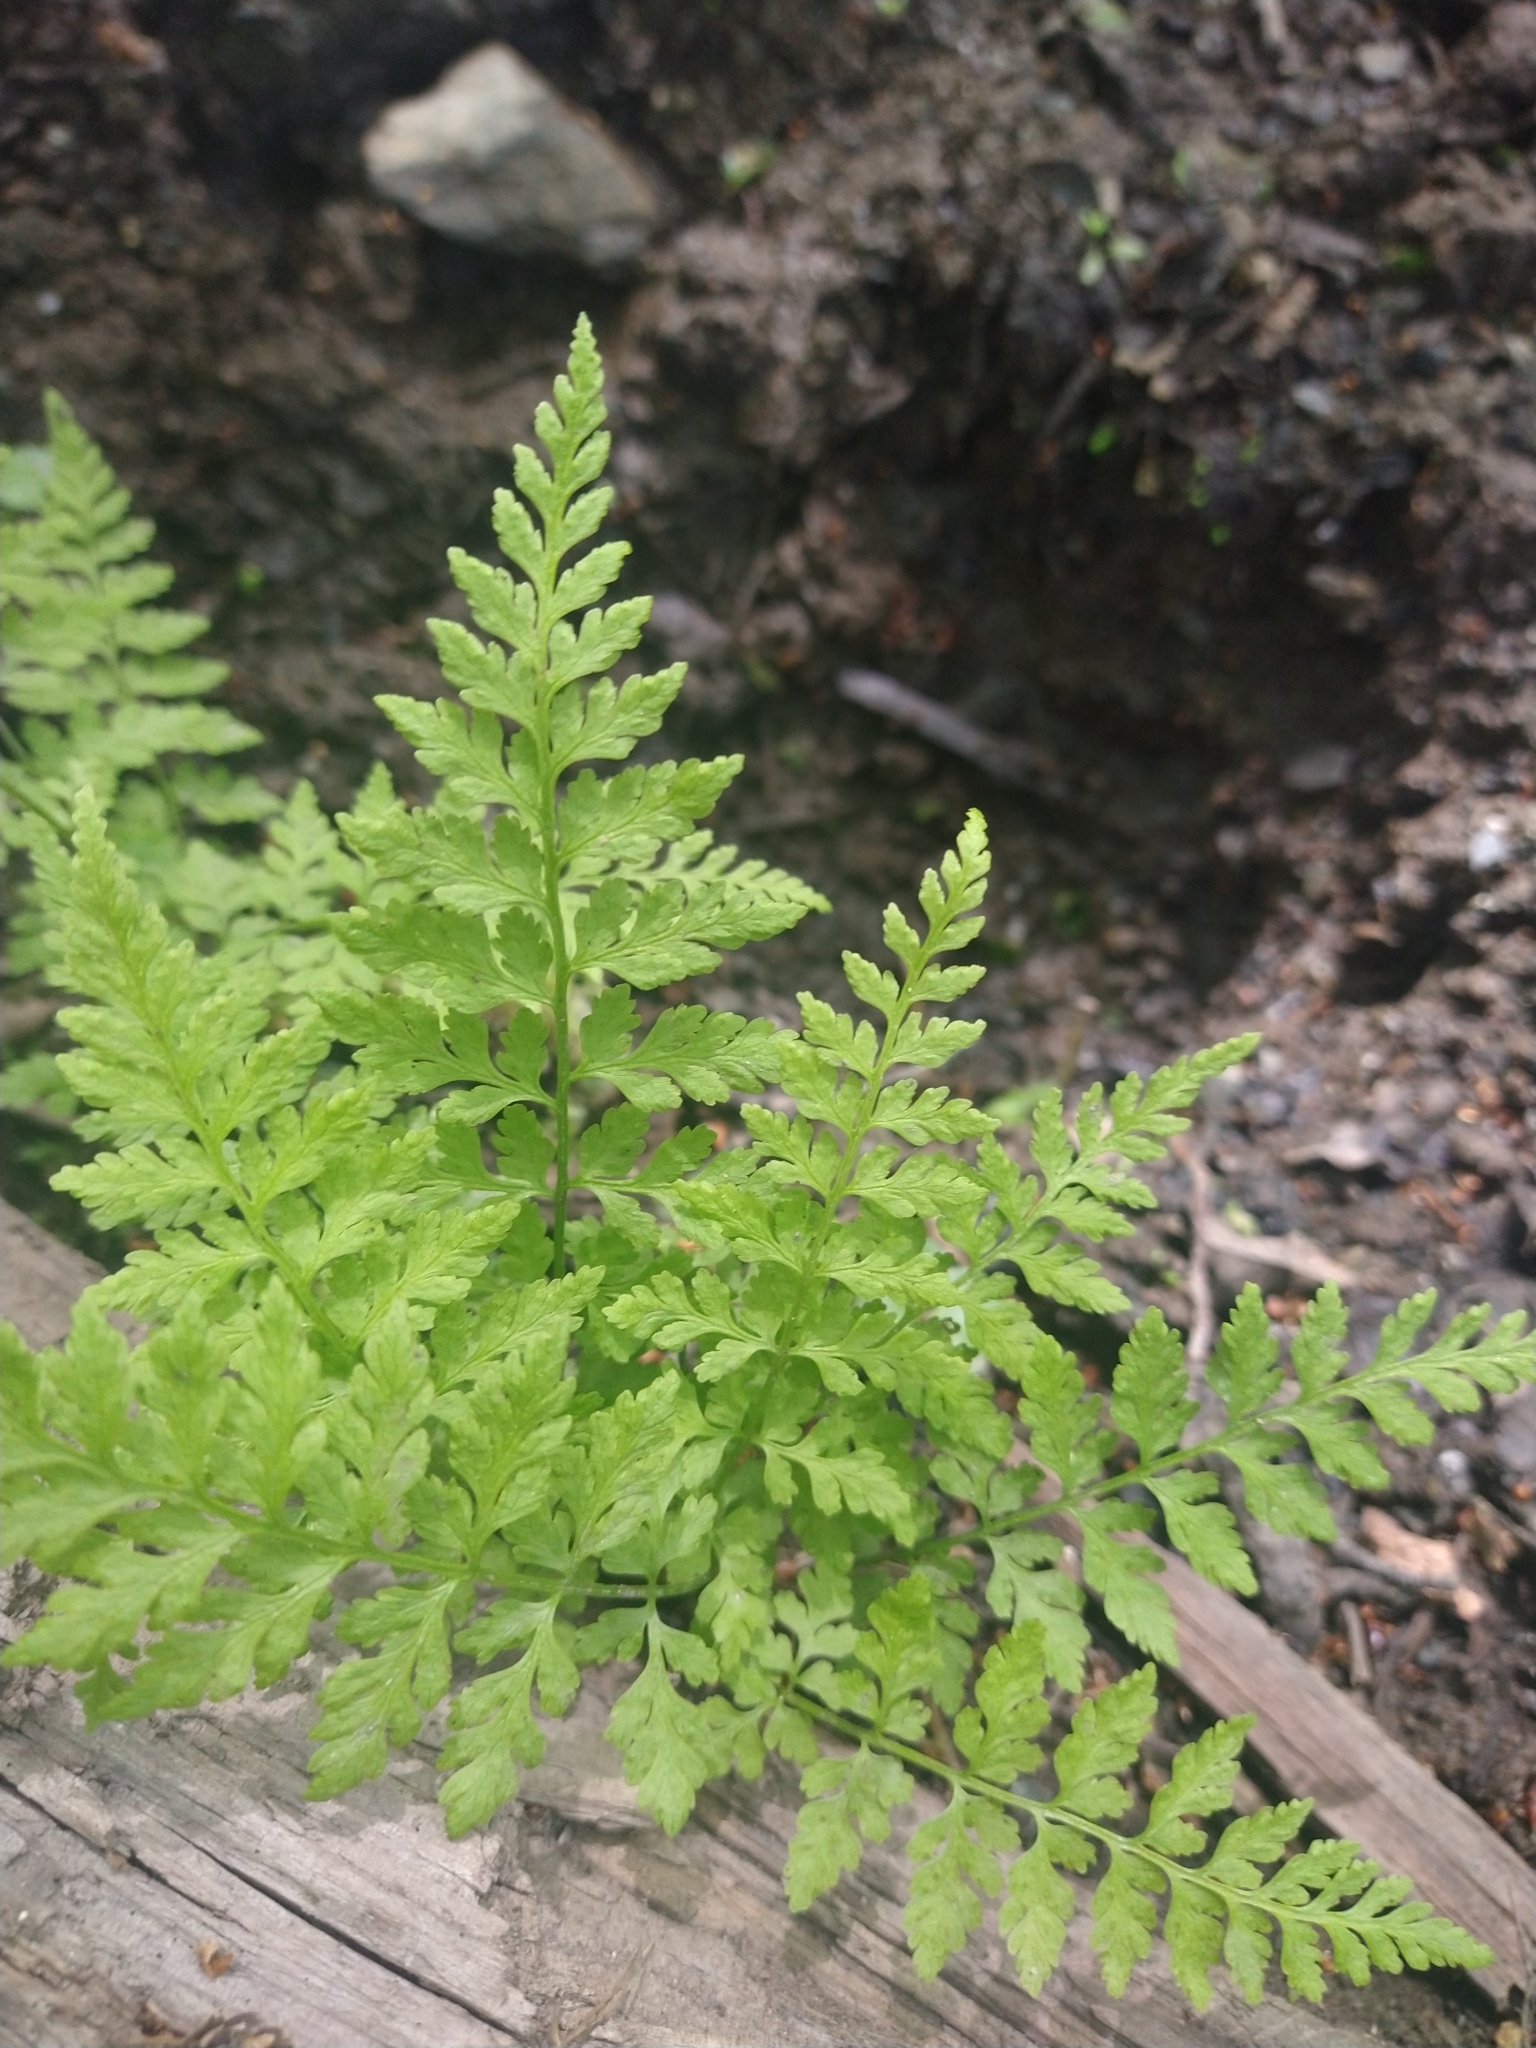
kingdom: Plantae
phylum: Tracheophyta
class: Polypodiopsida
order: Polypodiales
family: Cystopteridaceae
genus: Cystopteris
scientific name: Cystopteris fragilis
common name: Brittle bladder fern
